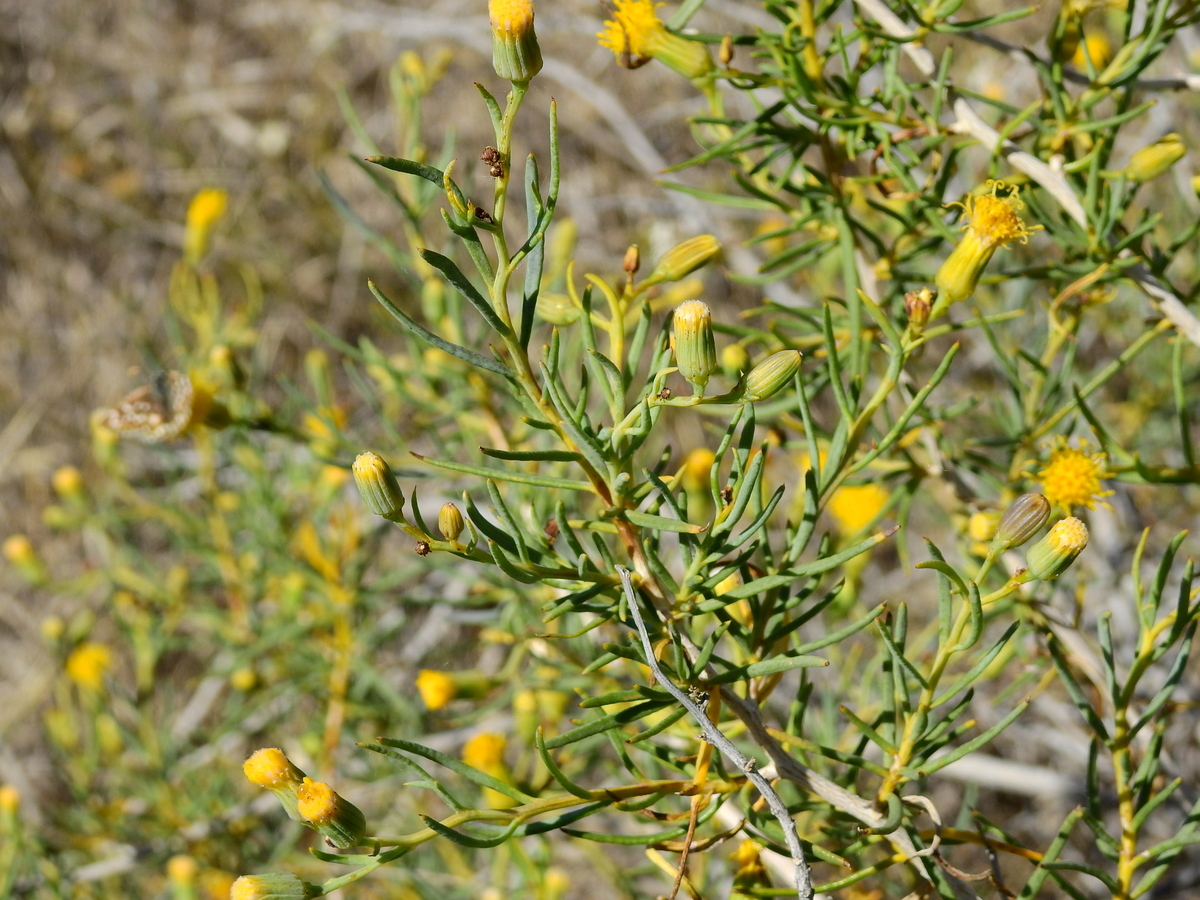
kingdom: Plantae
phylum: Tracheophyta
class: Magnoliopsida
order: Asterales
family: Asteraceae
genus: Senecio
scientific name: Senecio subulatus
